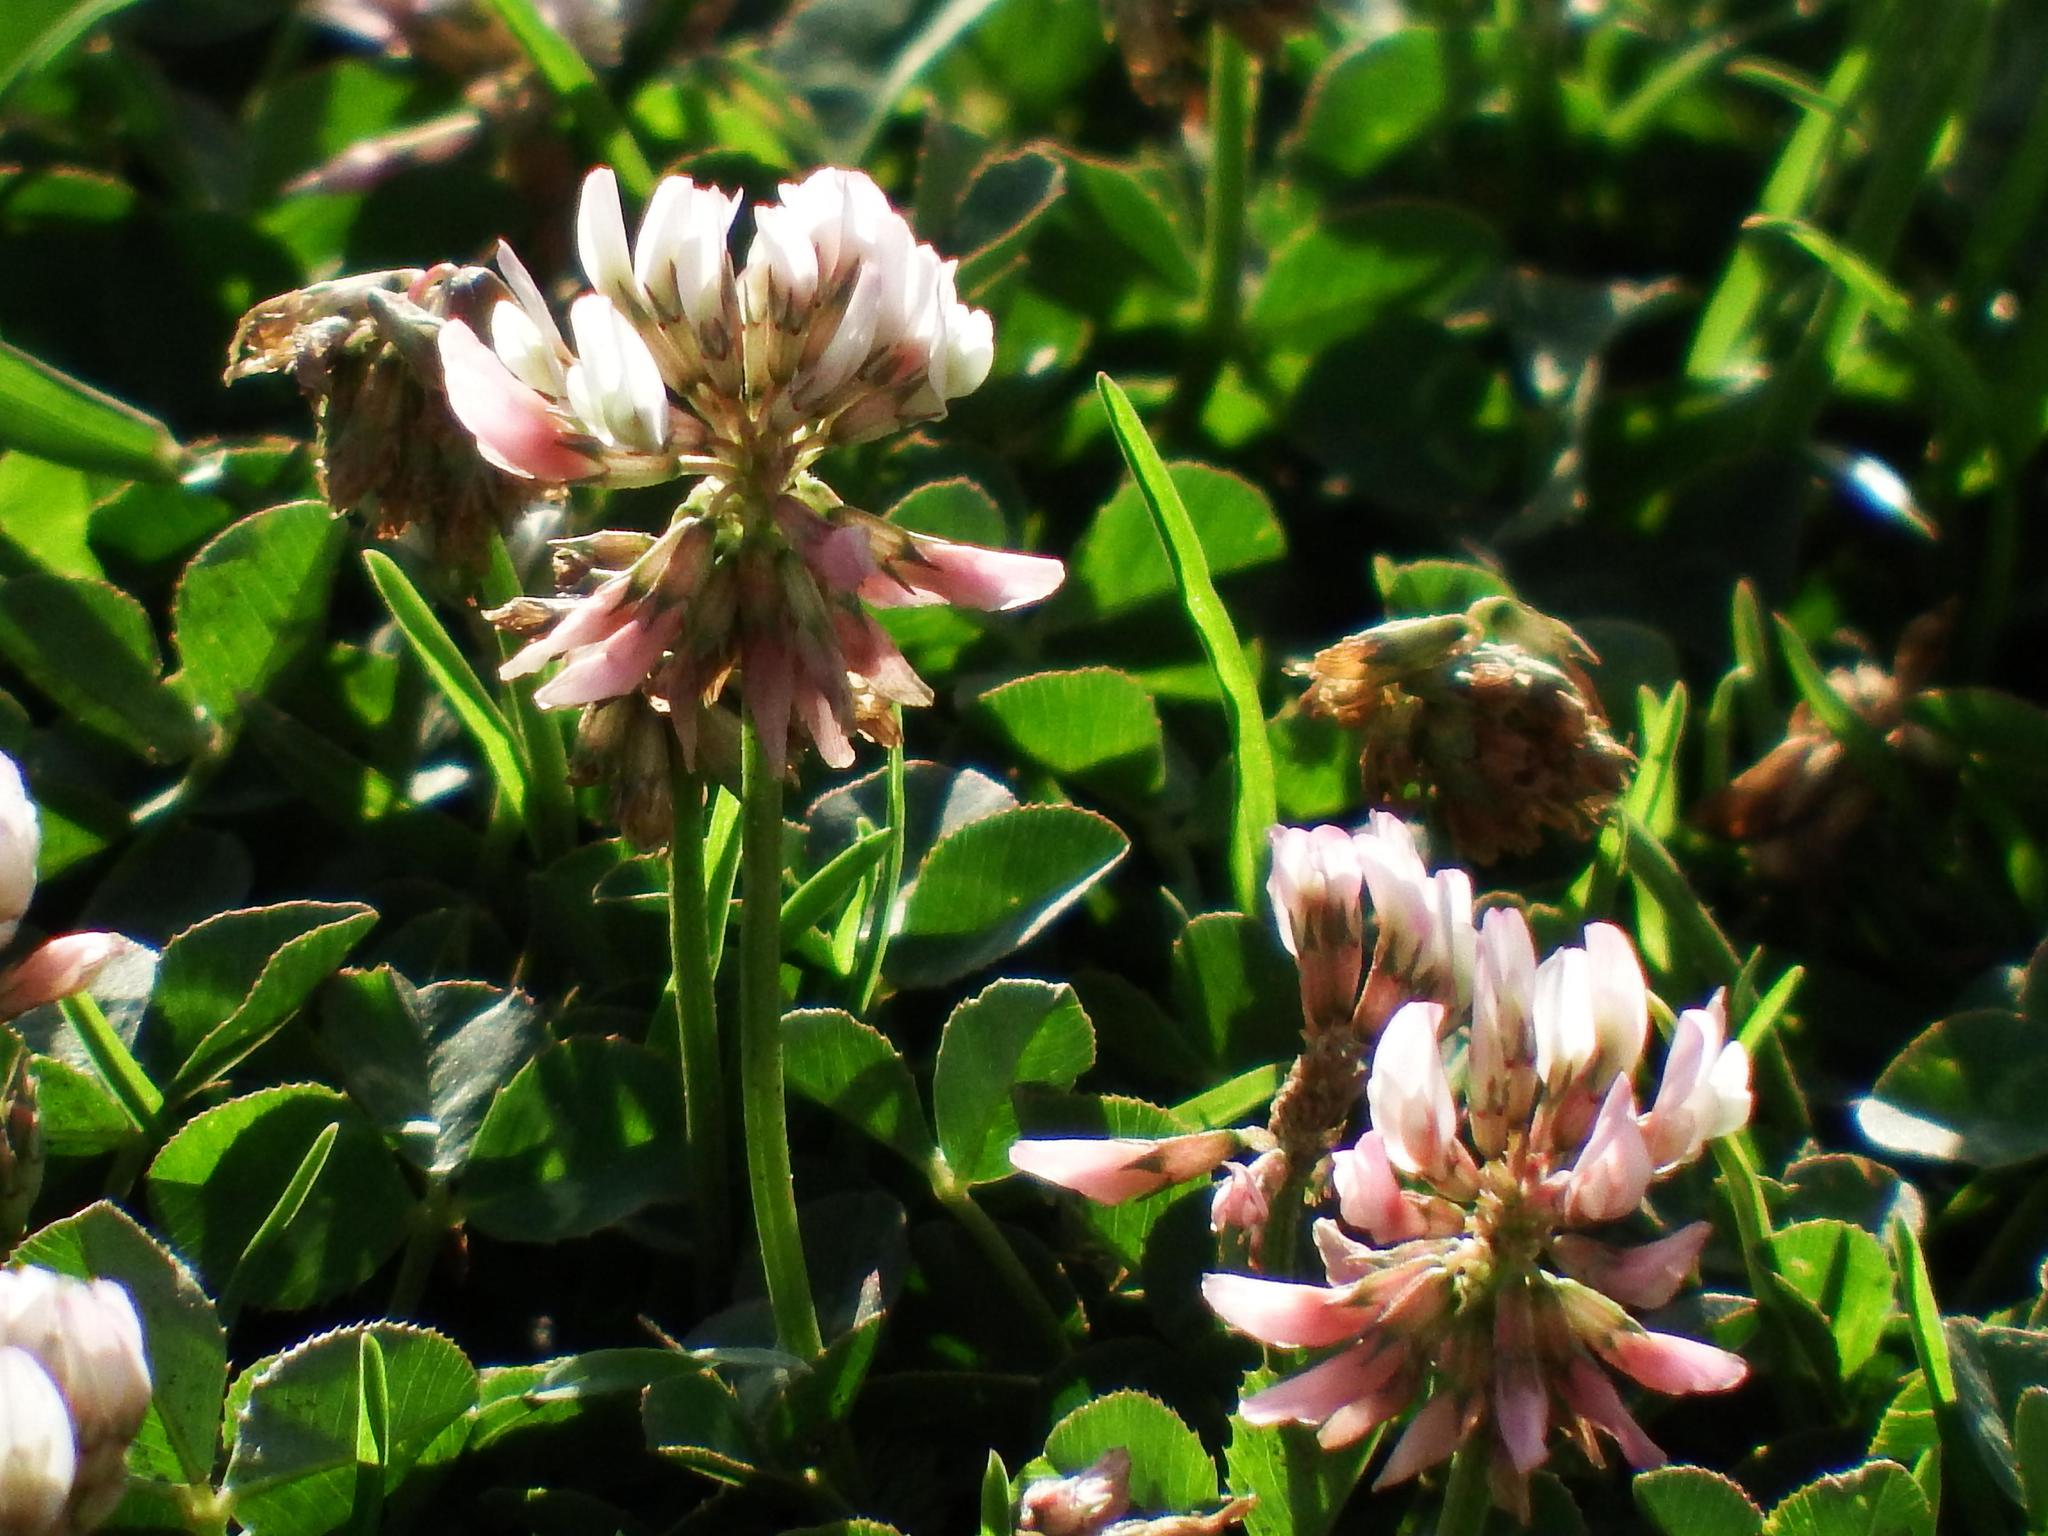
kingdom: Plantae
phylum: Tracheophyta
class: Magnoliopsida
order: Fabales
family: Fabaceae
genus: Trifolium
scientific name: Trifolium repens
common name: White clover
